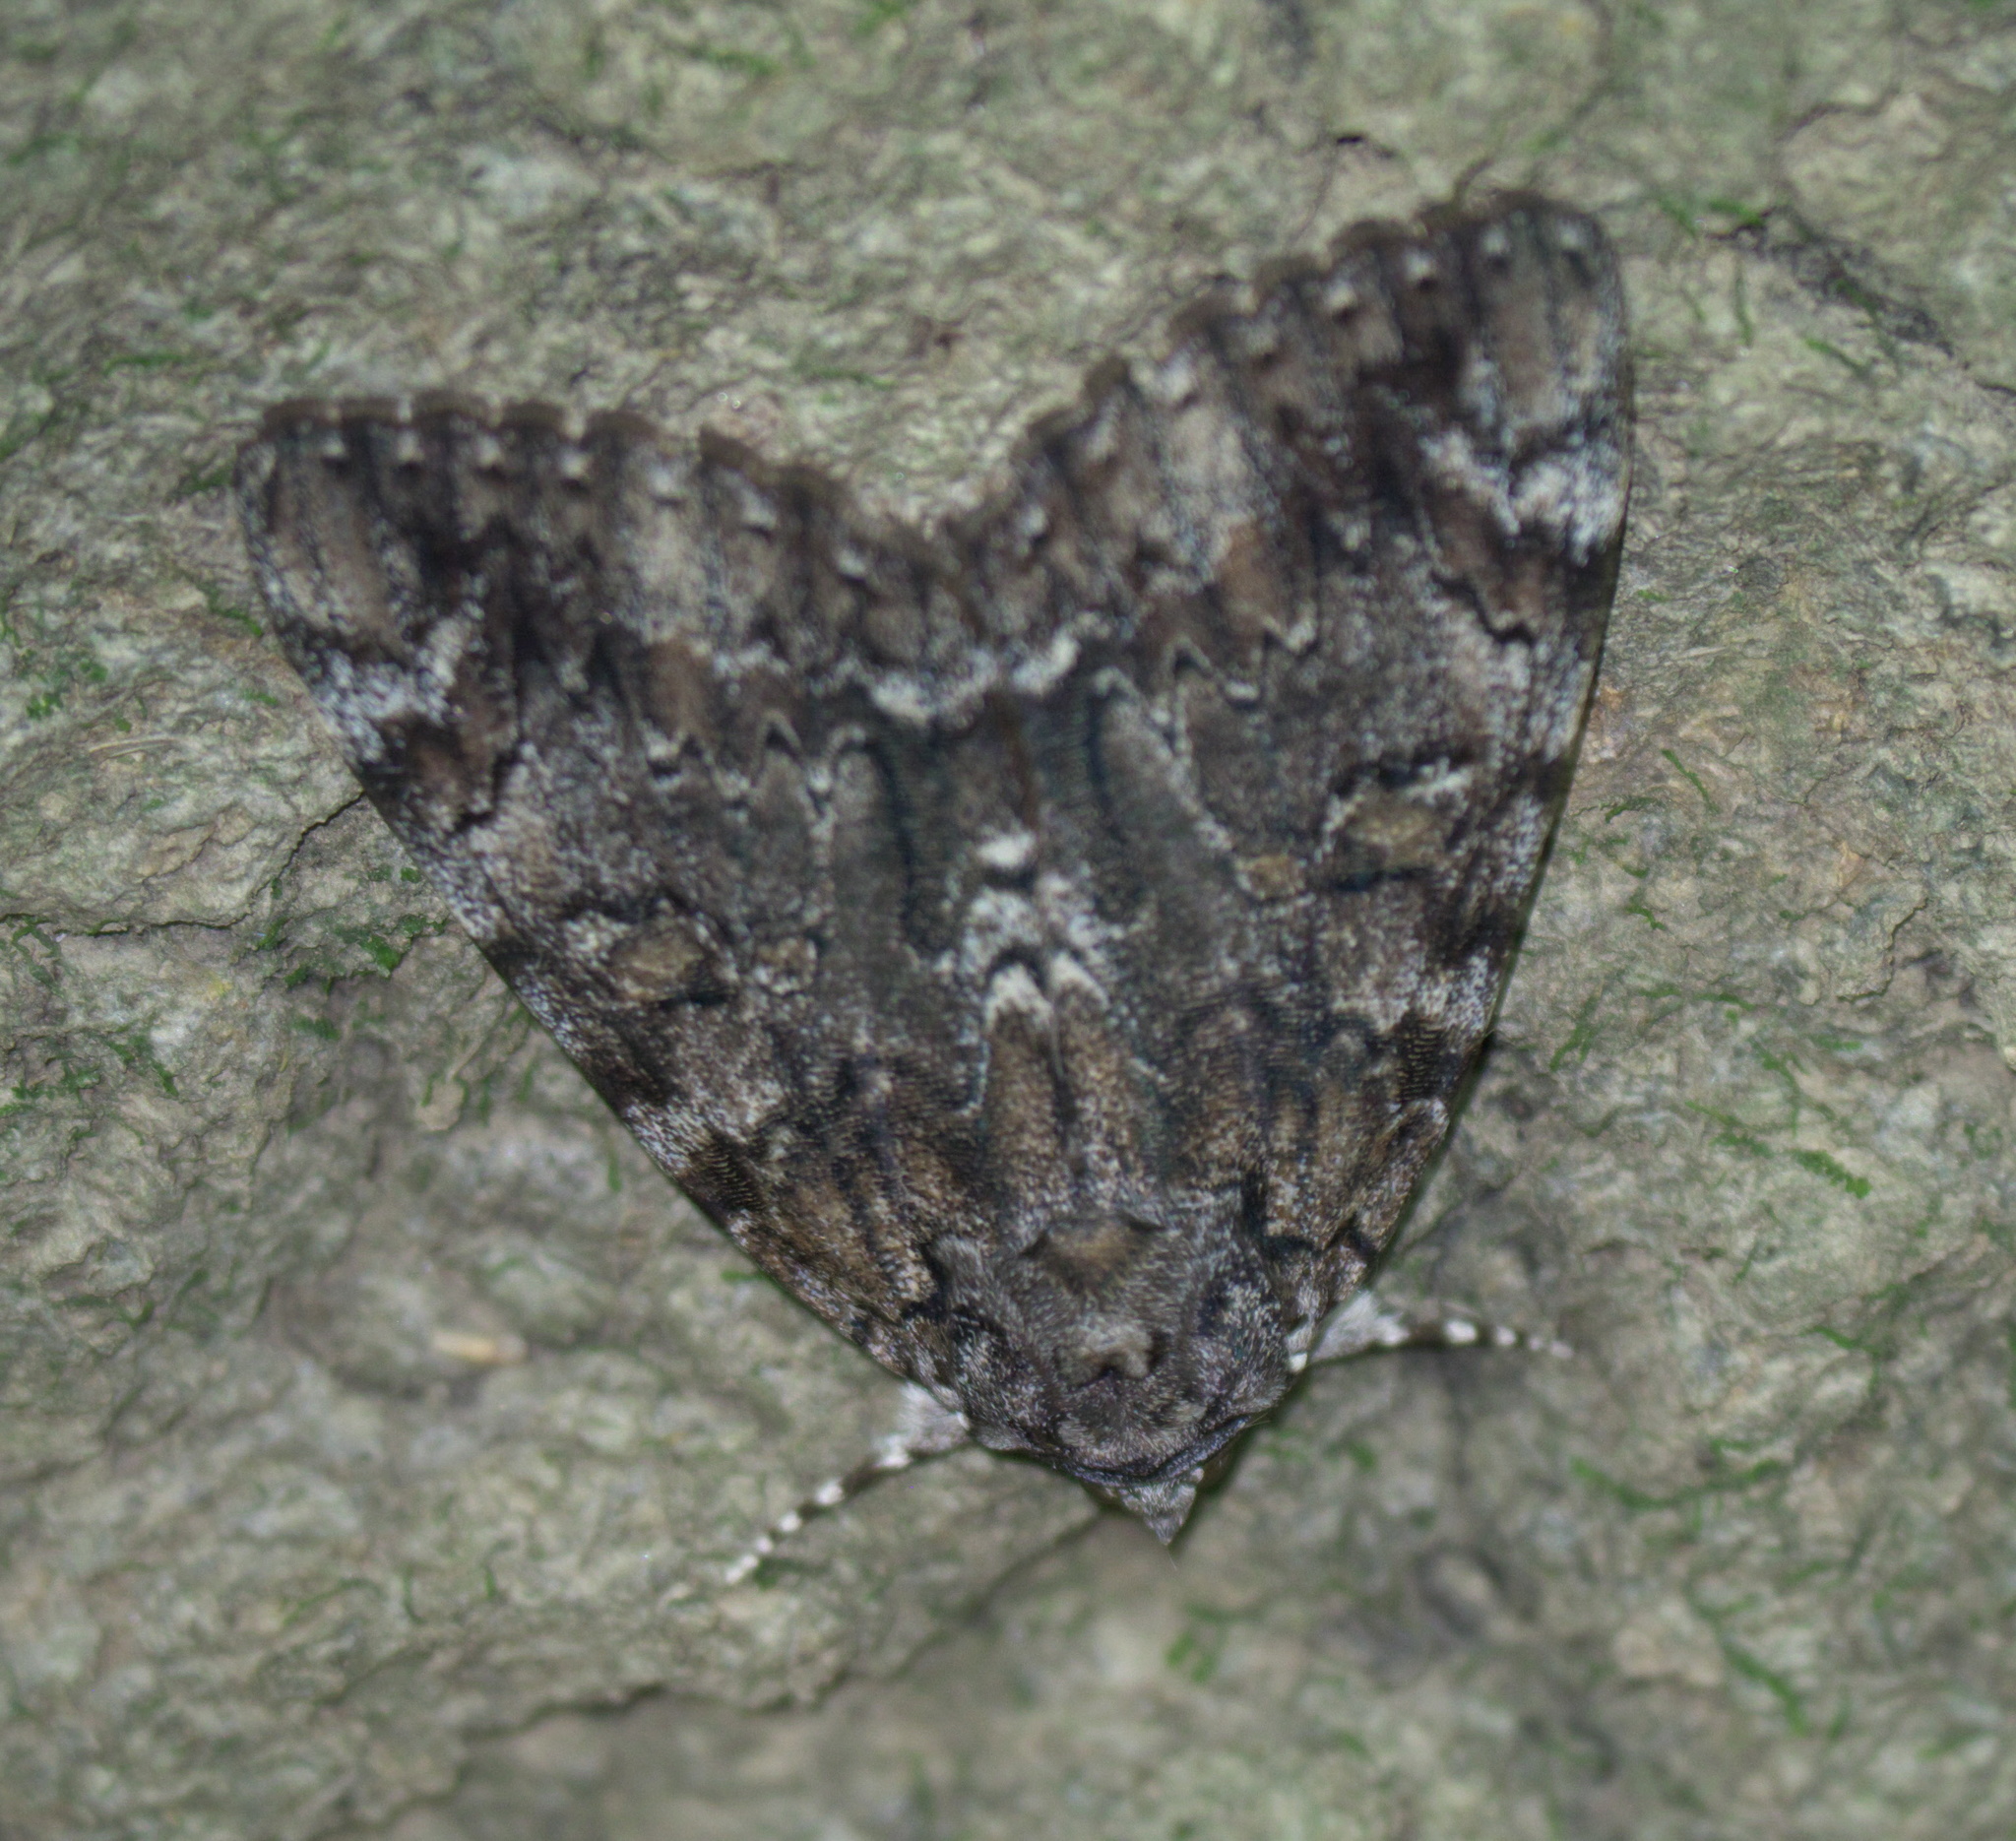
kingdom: Animalia
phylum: Arthropoda
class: Insecta
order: Lepidoptera
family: Erebidae
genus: Catocala
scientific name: Catocala lacrymosa
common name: Tearful underwing
